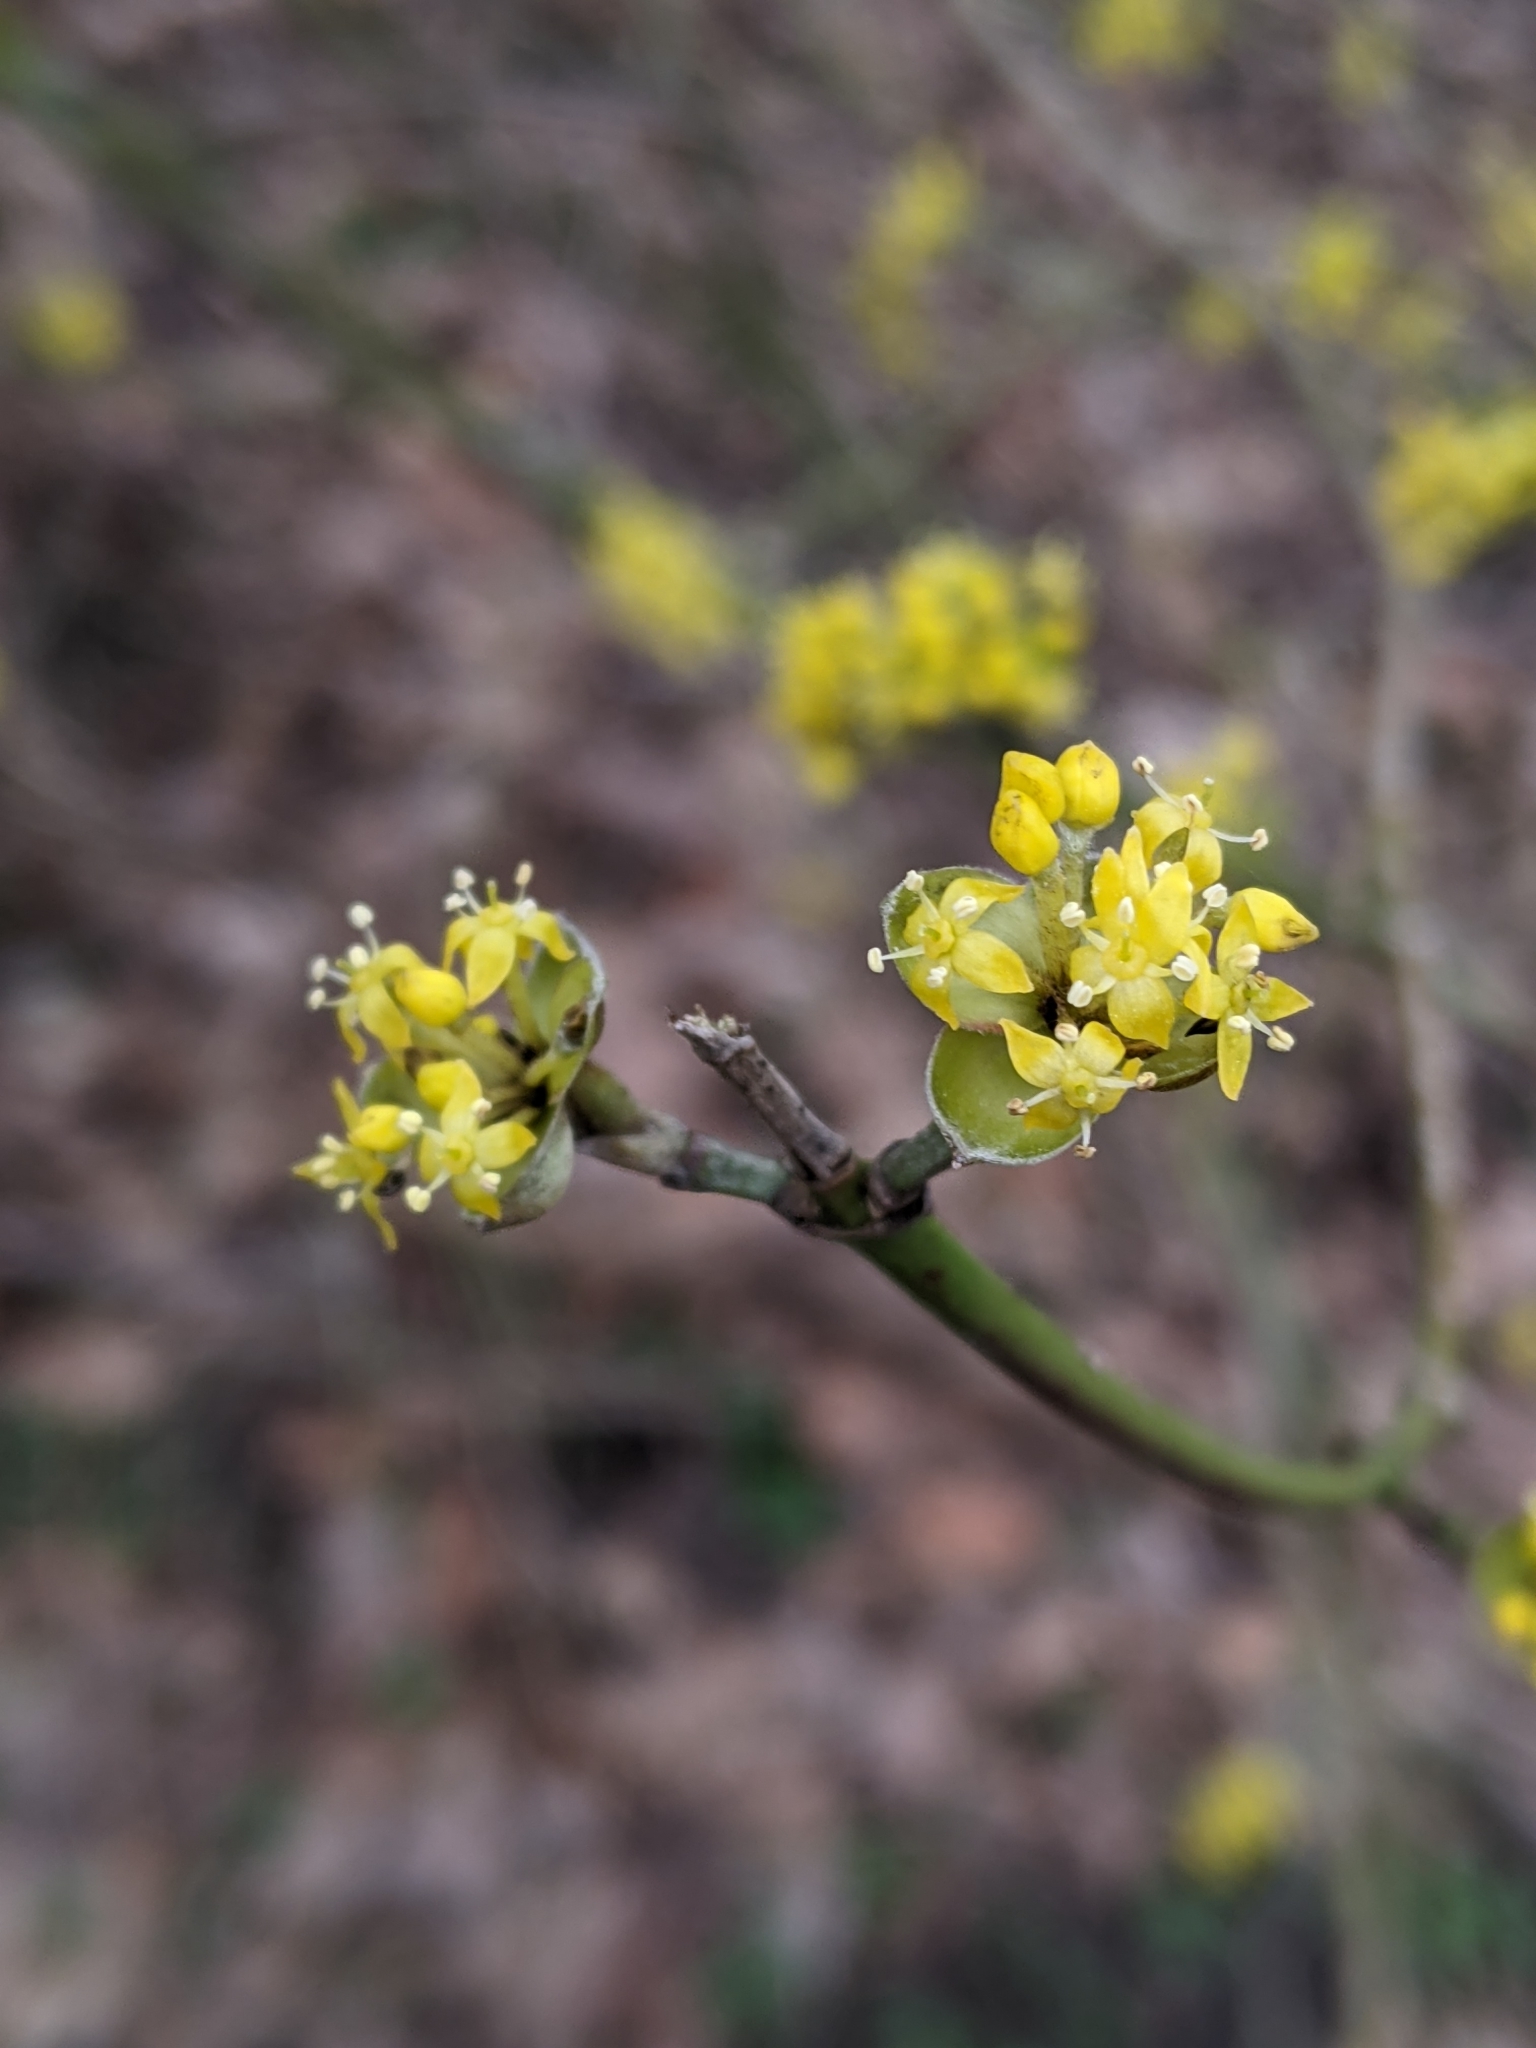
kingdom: Plantae
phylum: Tracheophyta
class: Magnoliopsida
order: Cornales
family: Cornaceae
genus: Cornus
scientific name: Cornus mas
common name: Cornelian-cherry
